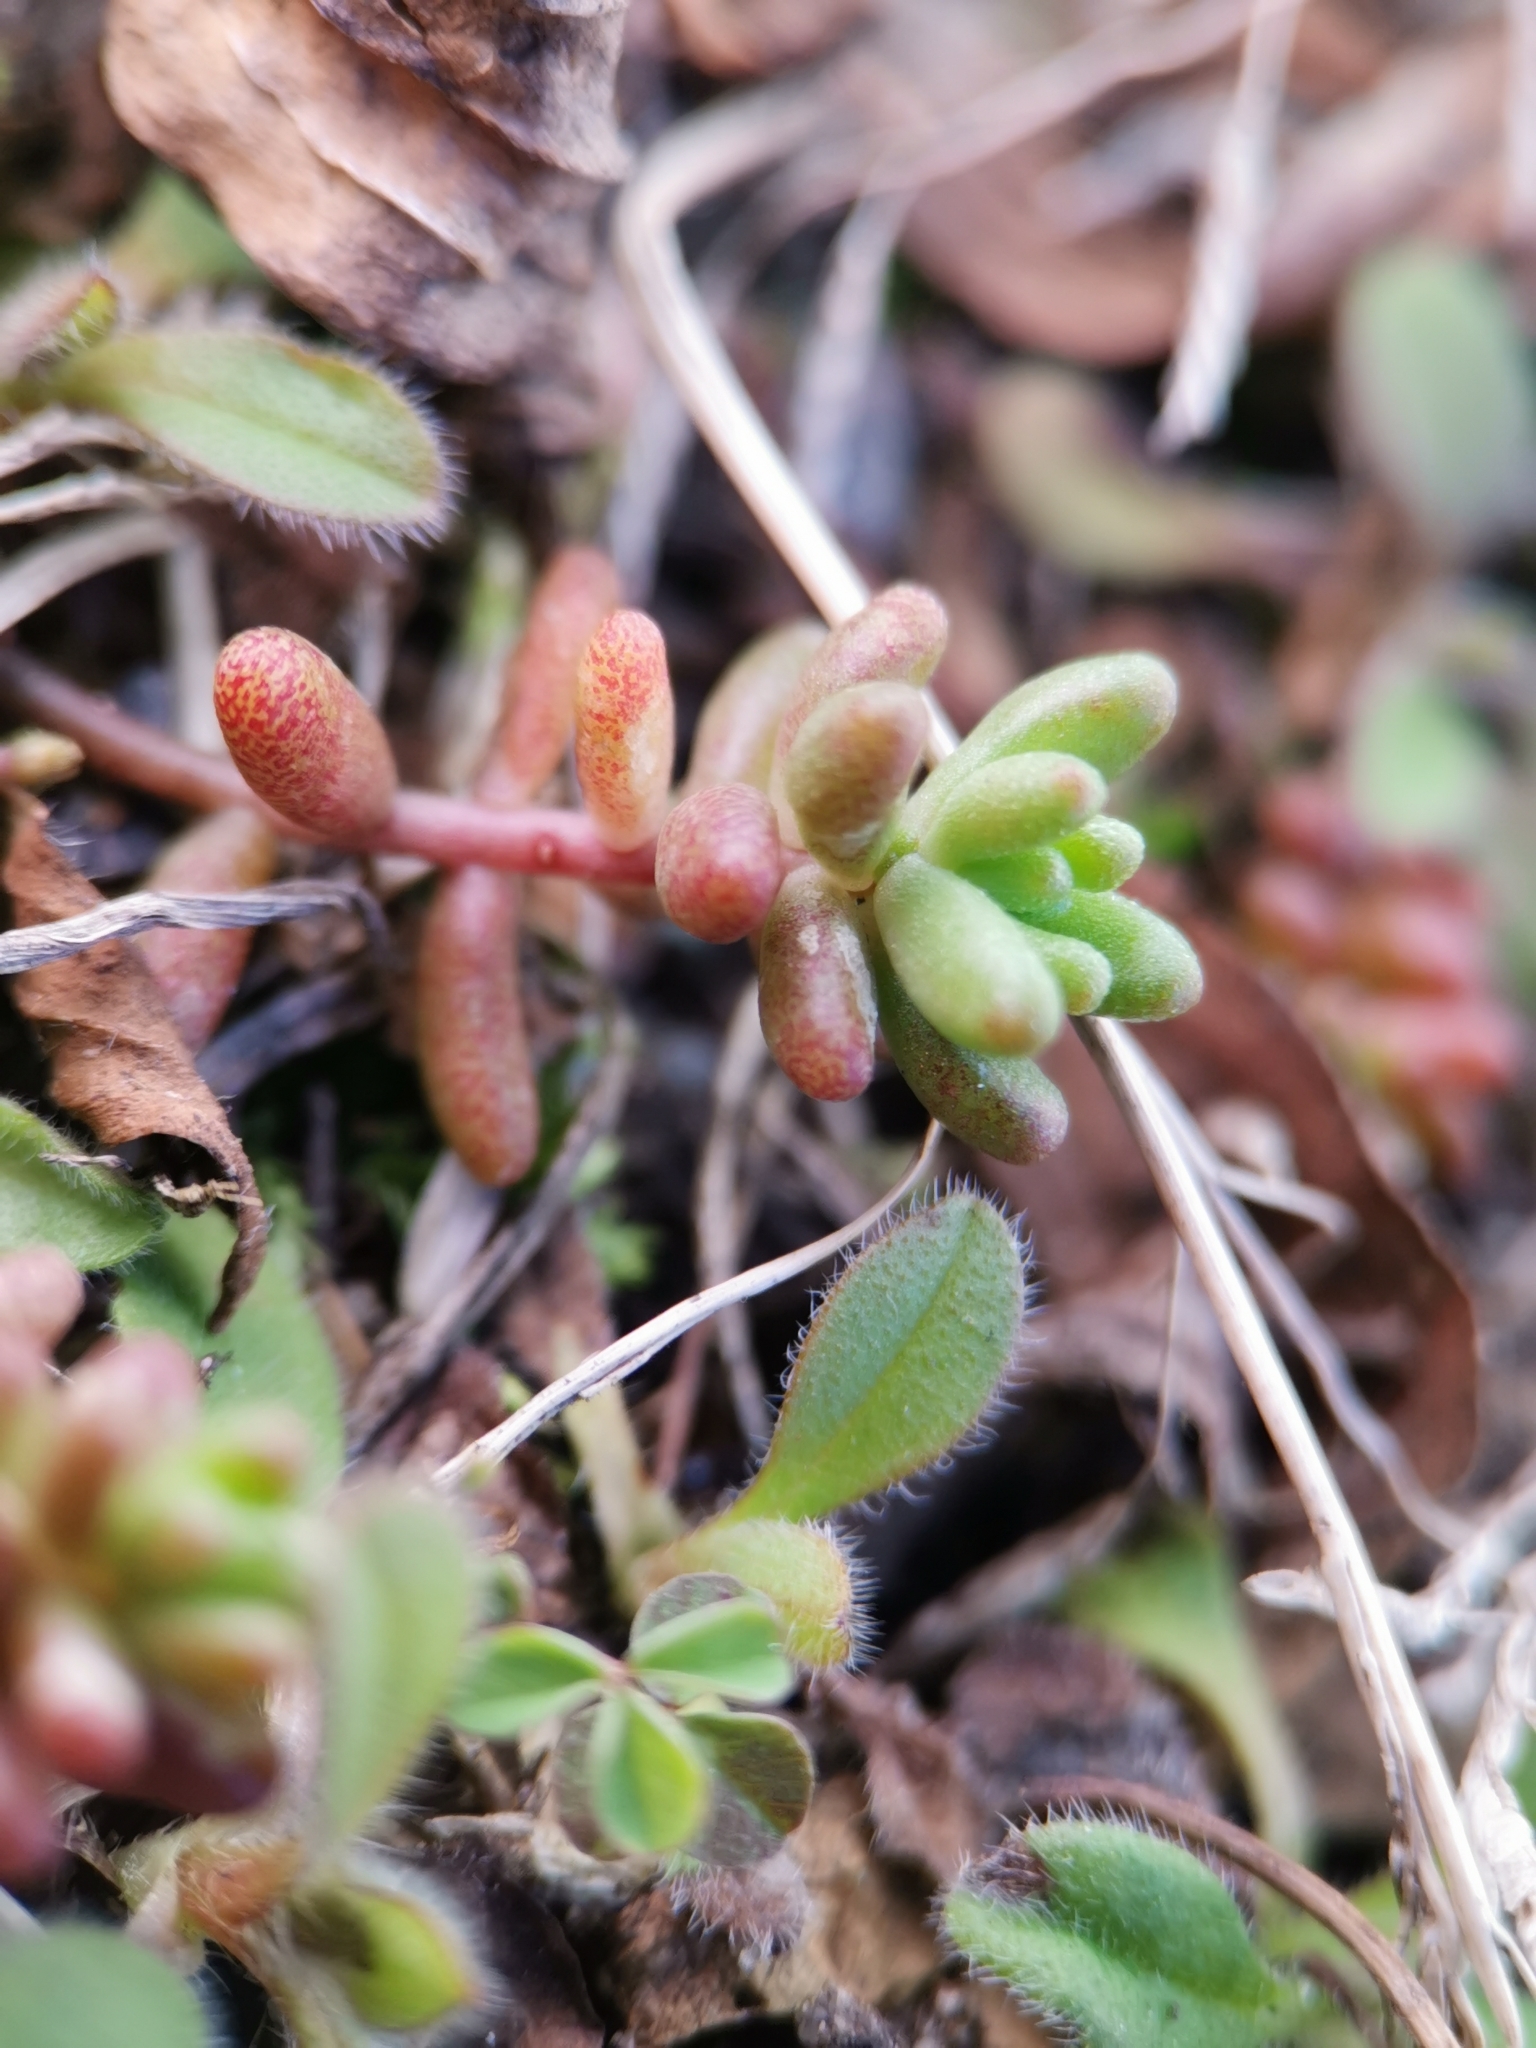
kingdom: Plantae
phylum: Tracheophyta
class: Magnoliopsida
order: Saxifragales
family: Crassulaceae
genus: Sedum
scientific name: Sedum album
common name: White stonecrop
